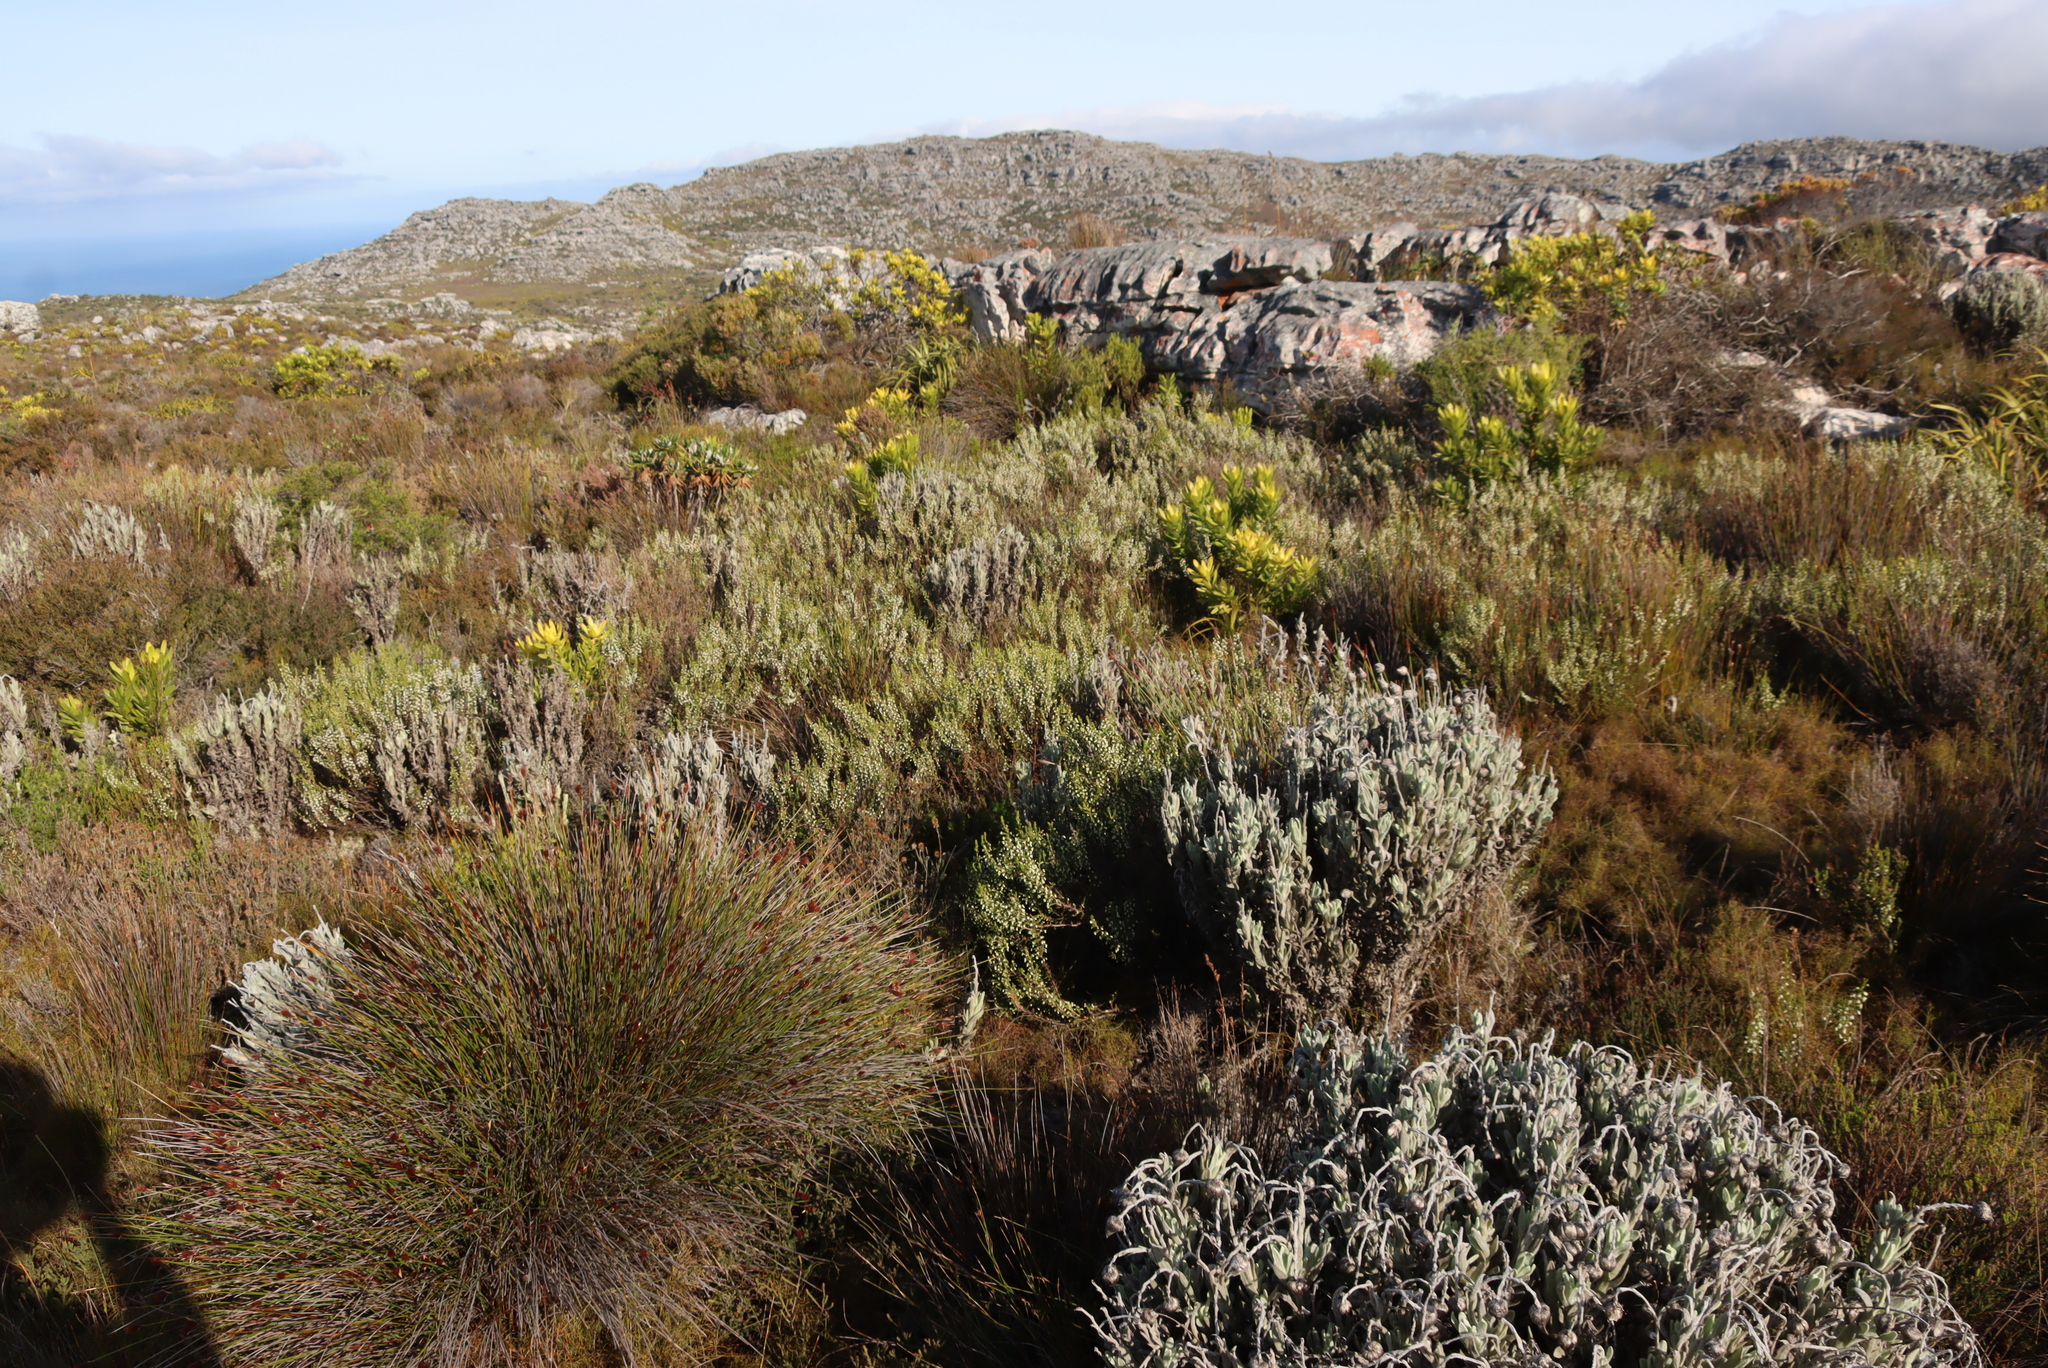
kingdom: Plantae
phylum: Tracheophyta
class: Magnoliopsida
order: Ericales
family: Ericaceae
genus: Erica
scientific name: Erica imbricata
